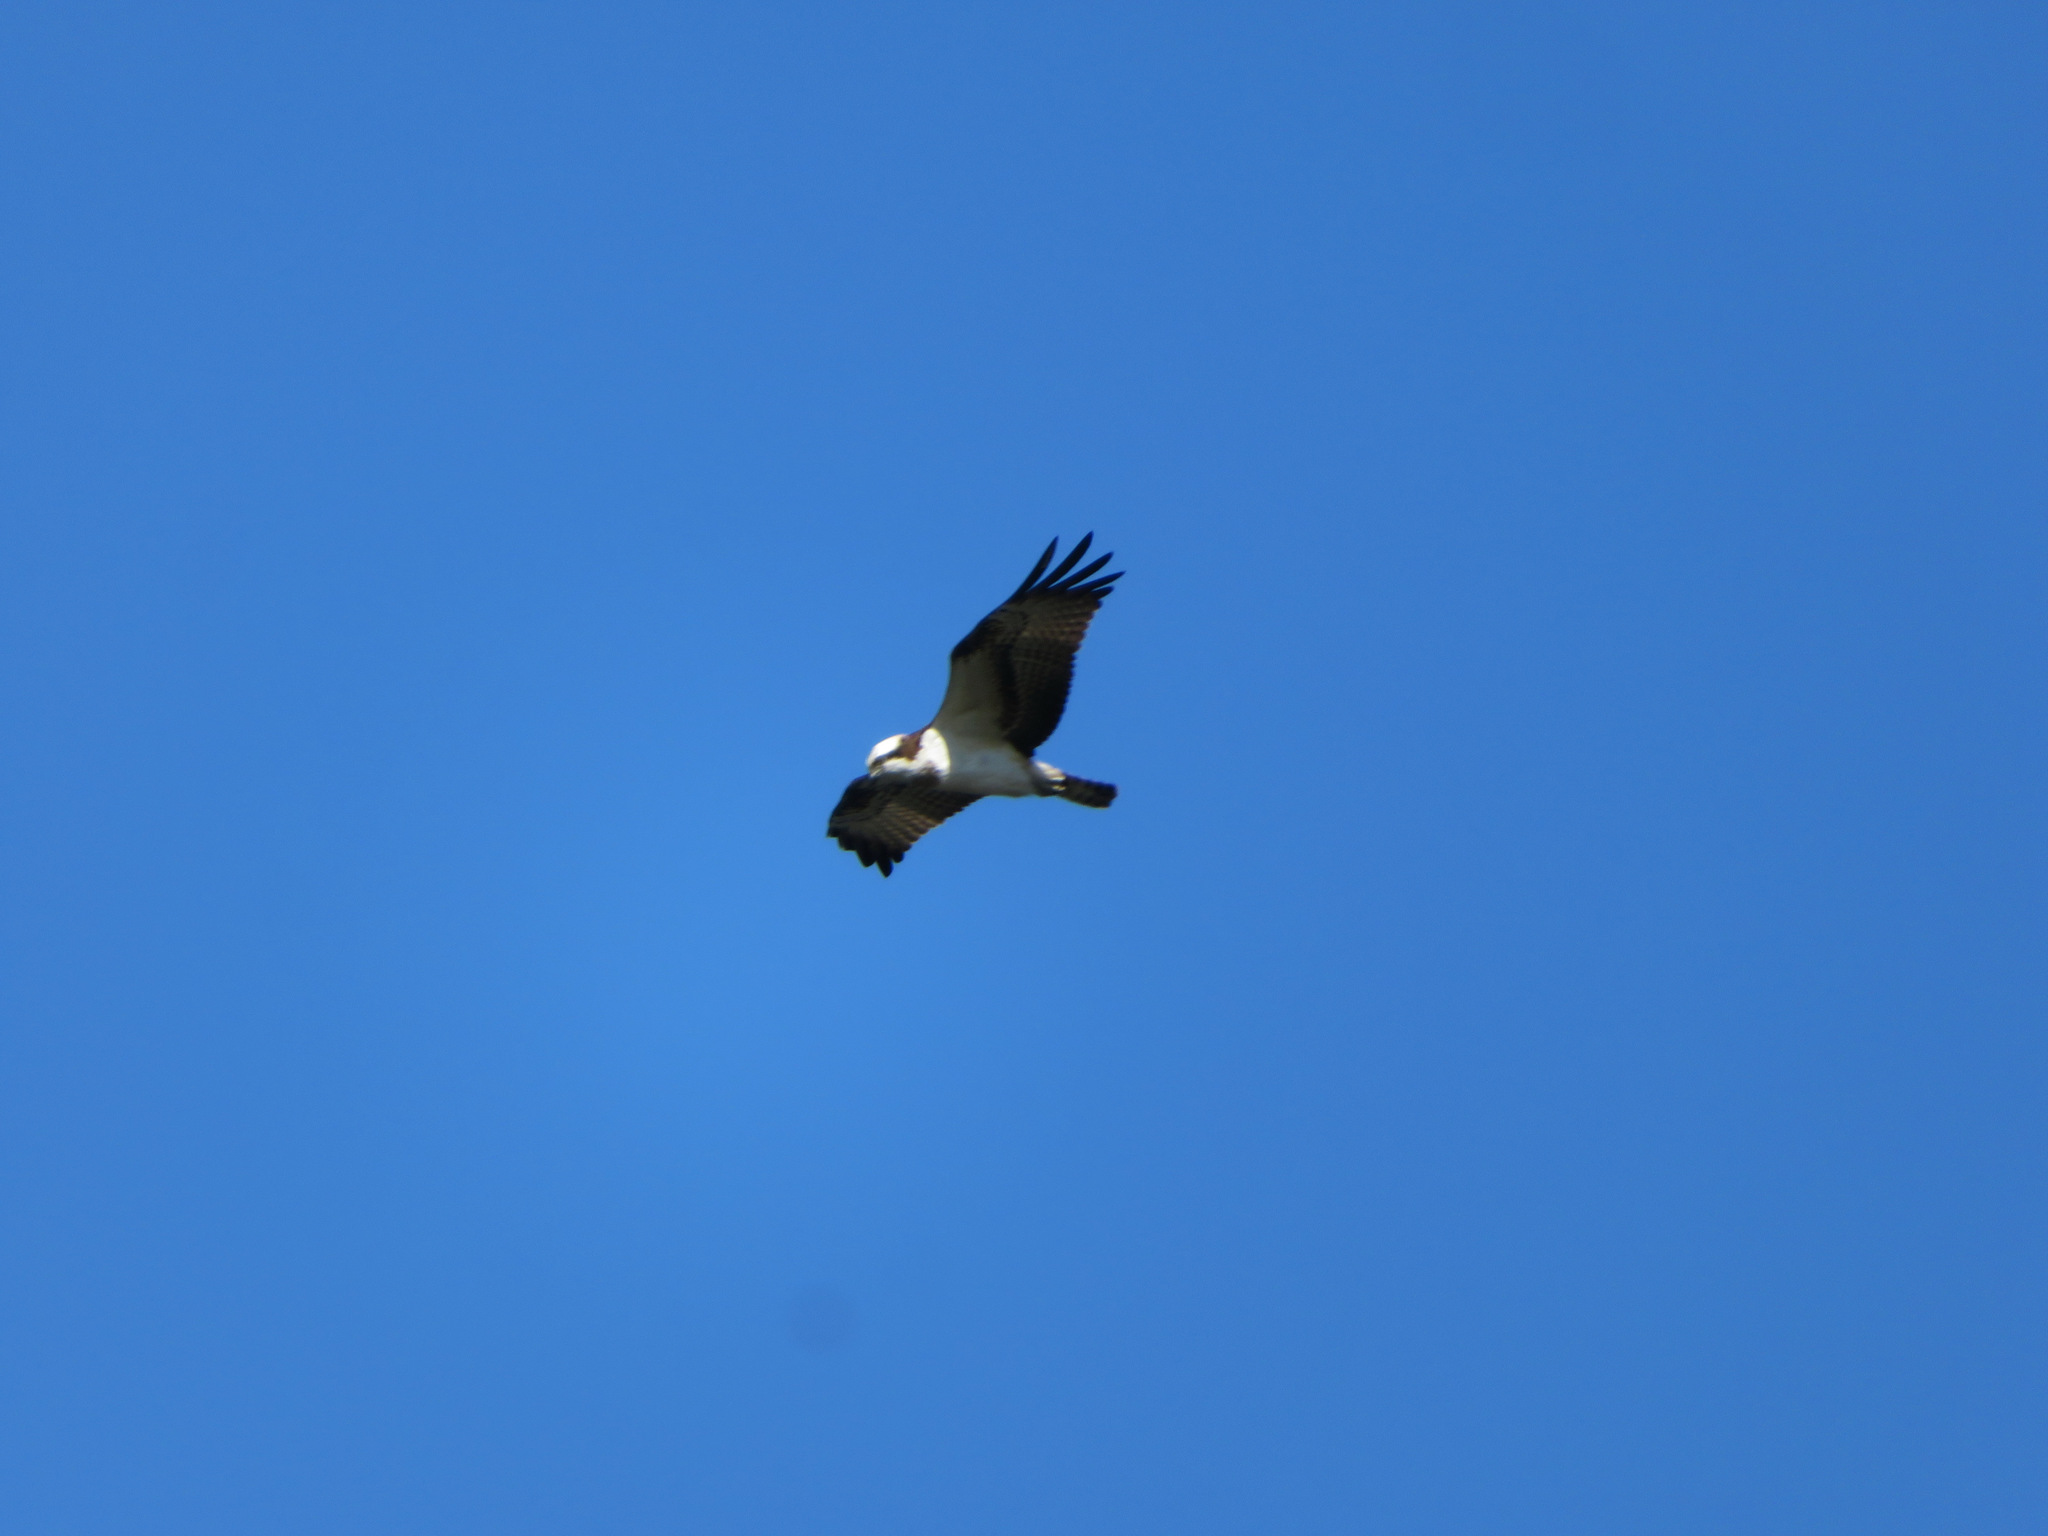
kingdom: Animalia
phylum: Chordata
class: Aves
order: Accipitriformes
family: Pandionidae
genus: Pandion
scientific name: Pandion haliaetus
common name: Osprey
